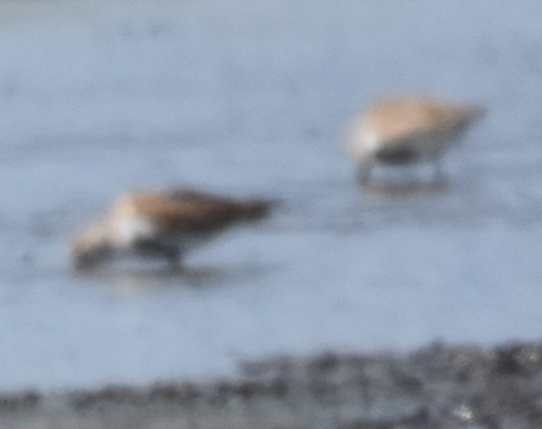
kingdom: Animalia
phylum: Chordata
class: Aves
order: Charadriiformes
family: Scolopacidae
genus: Calidris
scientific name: Calidris alpina
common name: Dunlin
